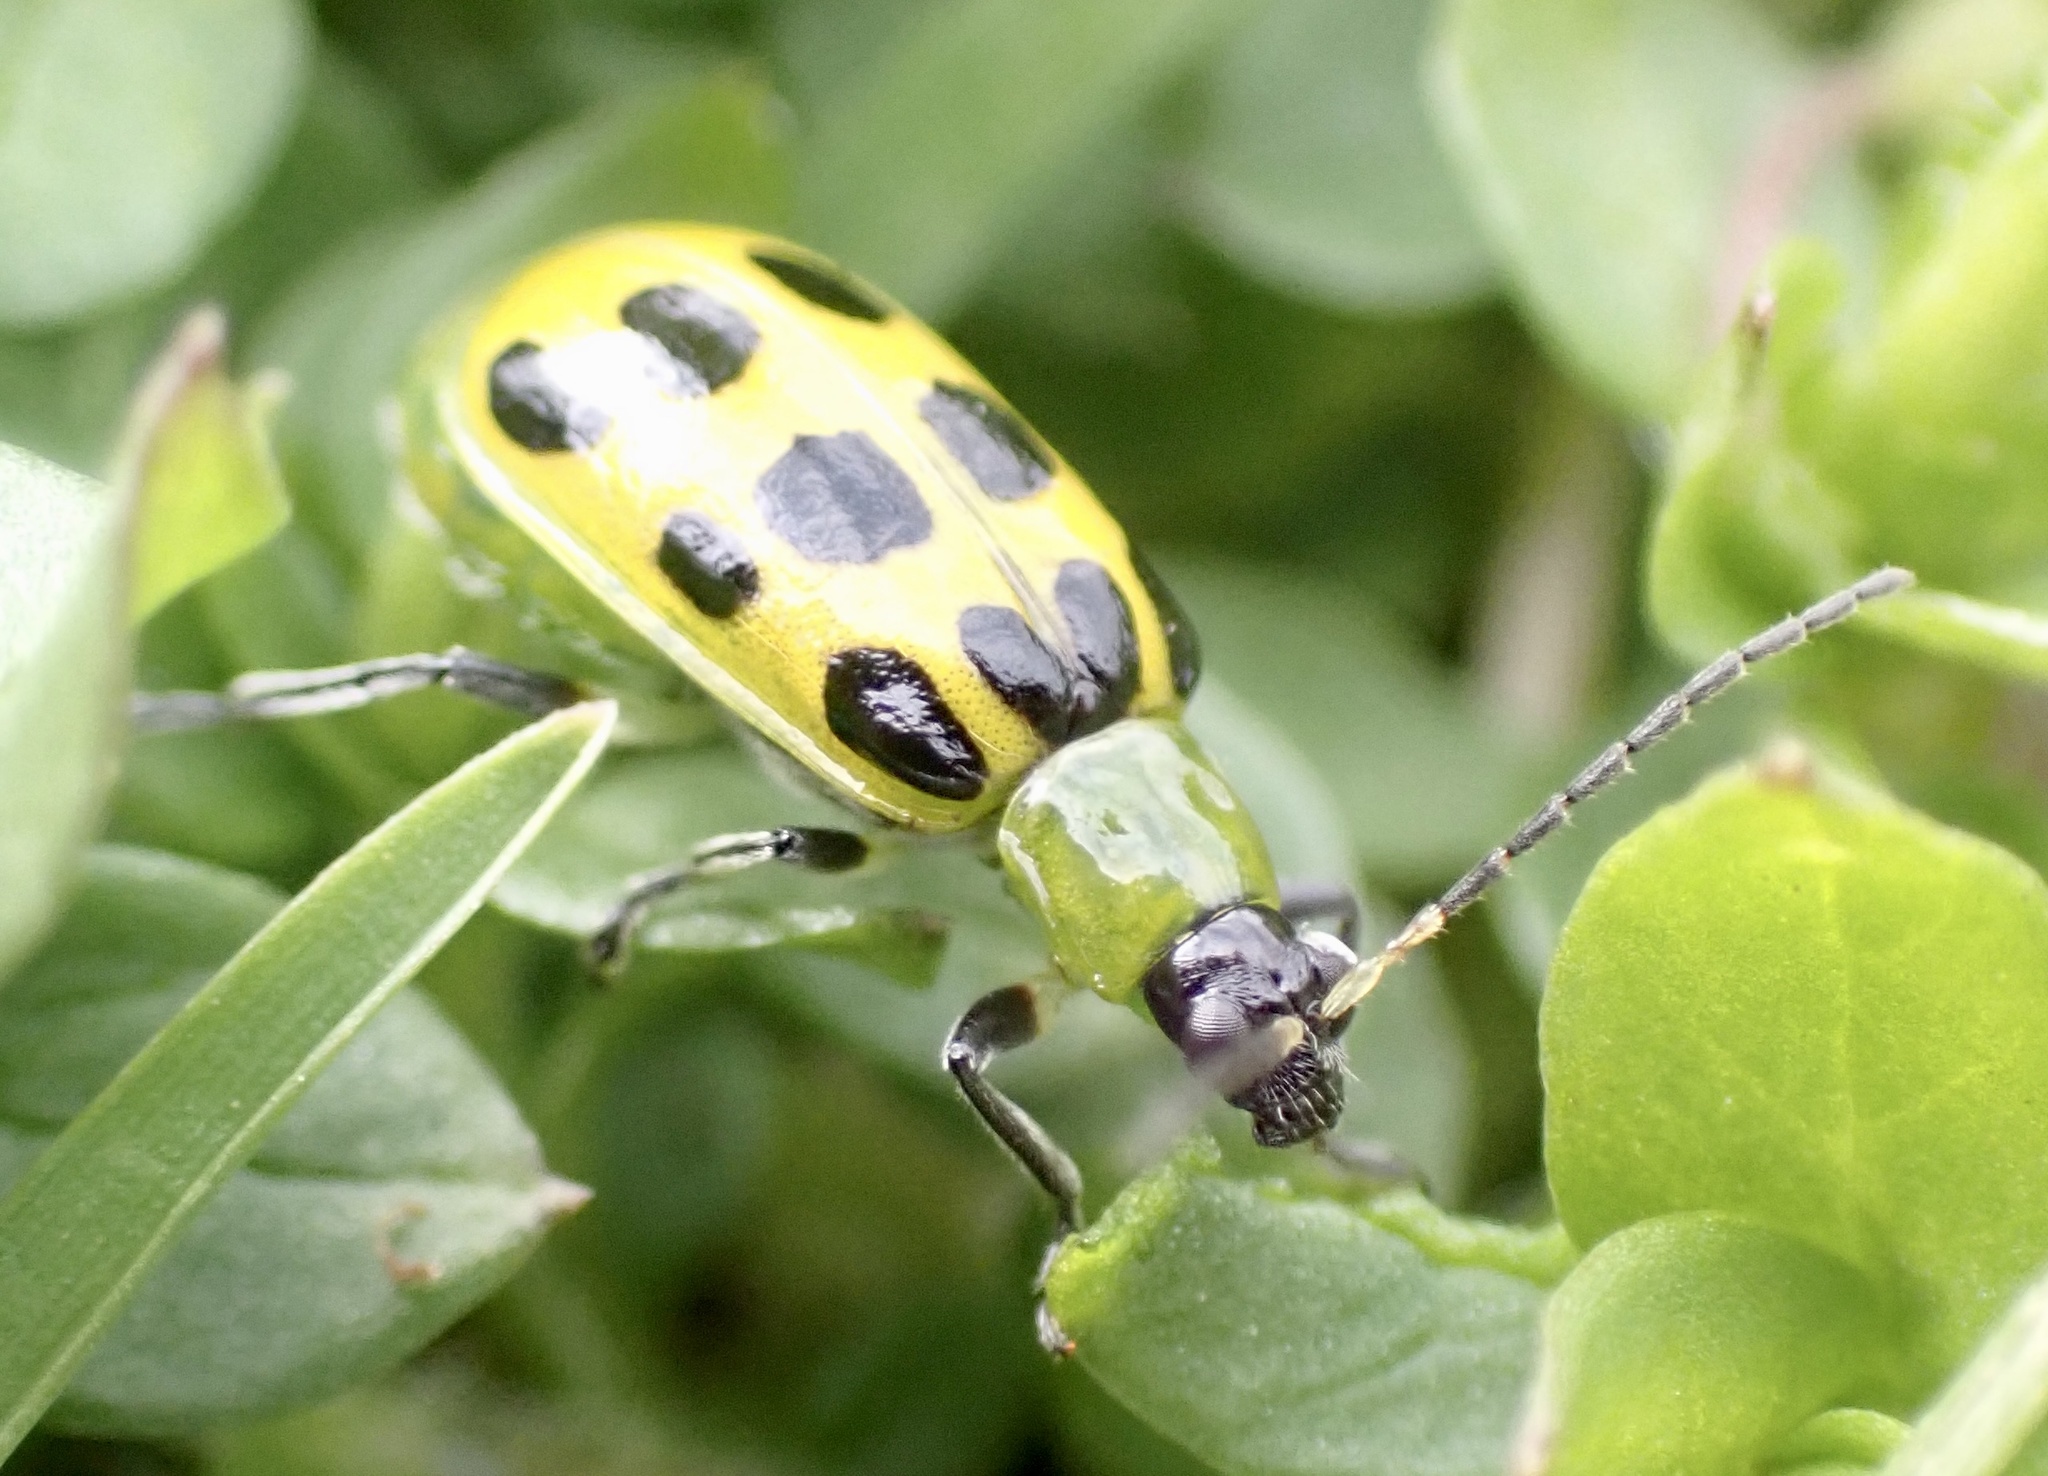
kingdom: Animalia
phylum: Arthropoda
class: Insecta
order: Coleoptera
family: Chrysomelidae
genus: Diabrotica
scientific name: Diabrotica undecimpunctata
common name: Spotted cucumber beetle
